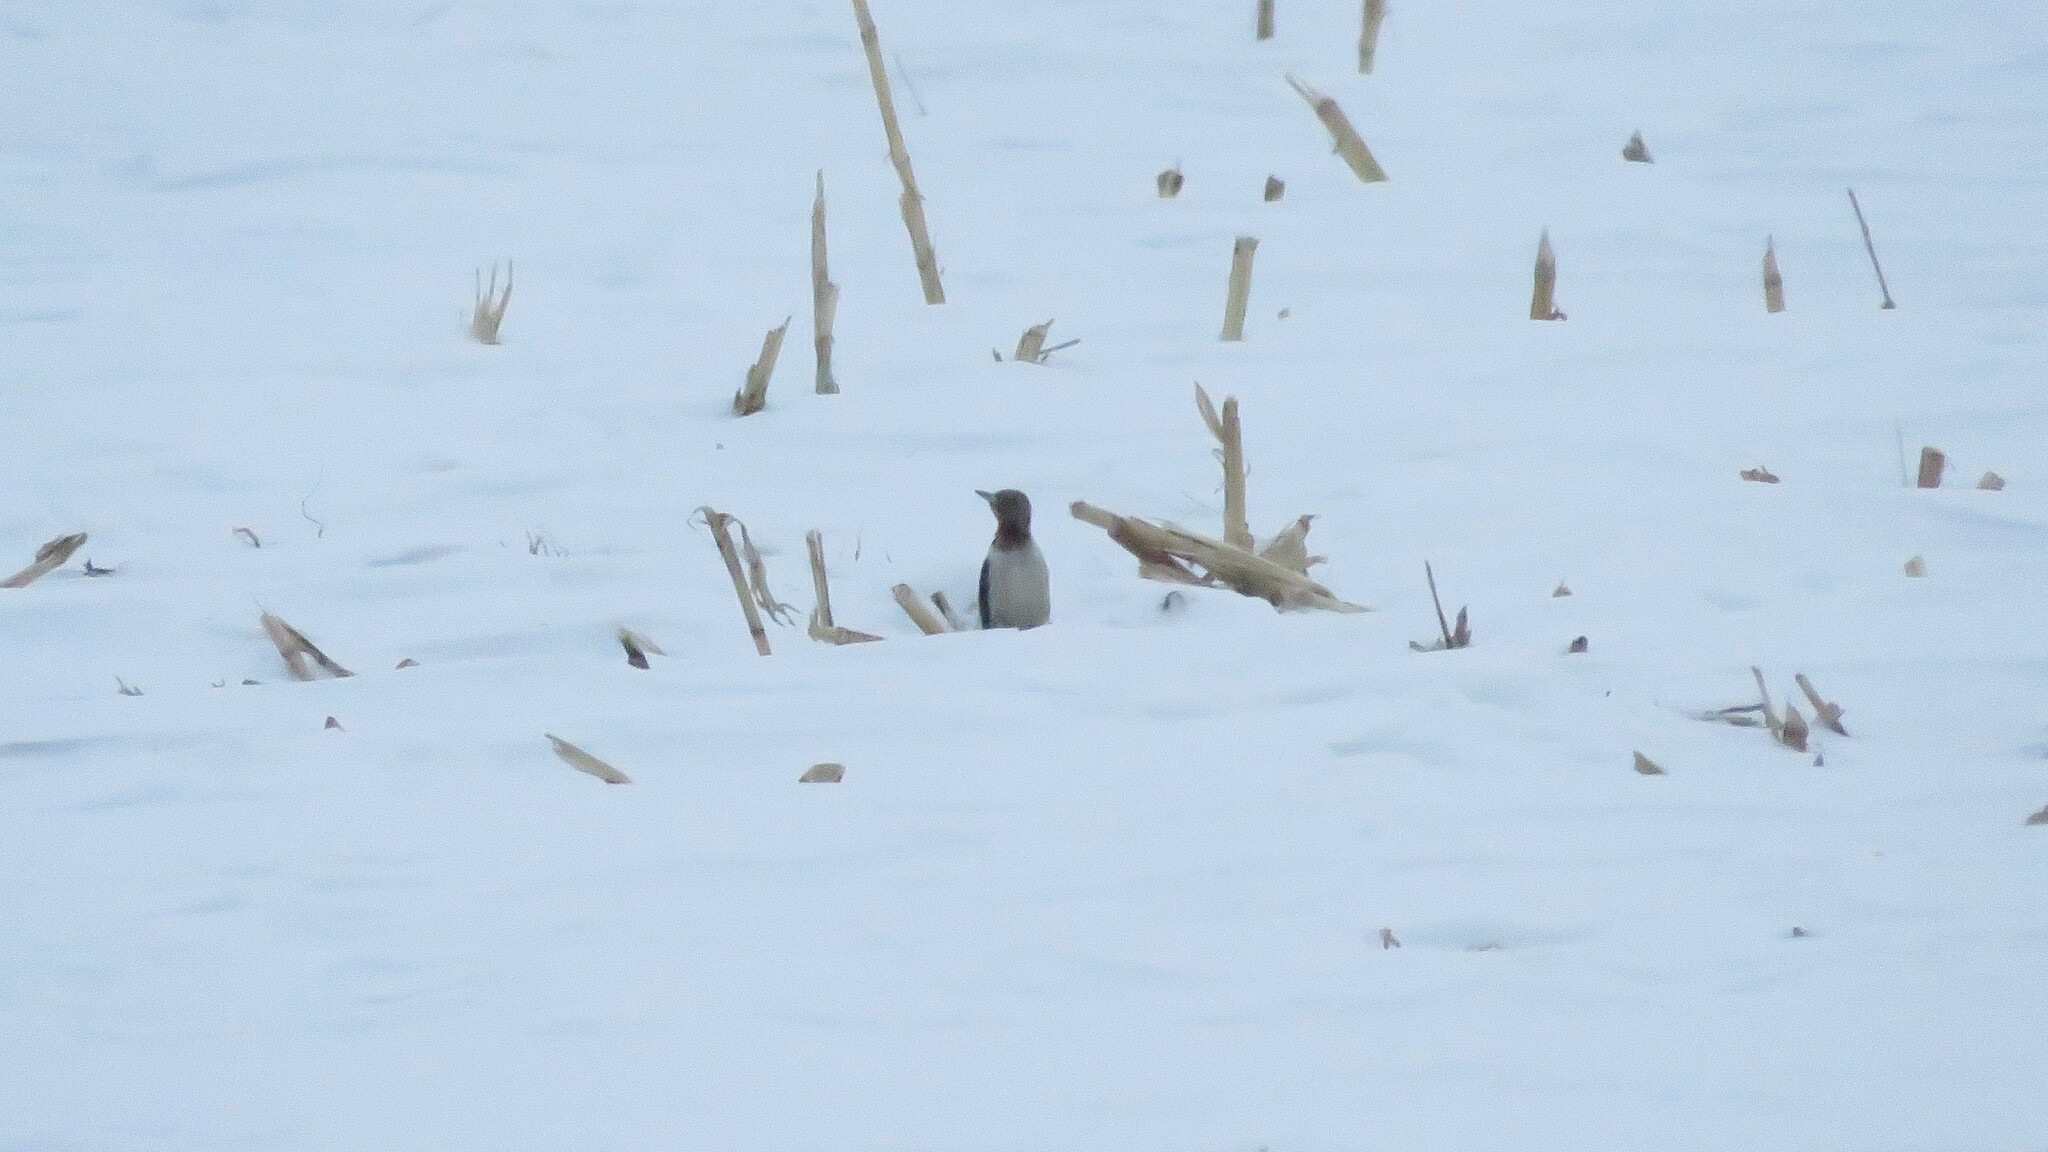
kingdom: Animalia
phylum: Chordata
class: Aves
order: Piciformes
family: Picidae
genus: Melanerpes
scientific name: Melanerpes erythrocephalus
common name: Red-headed woodpecker
